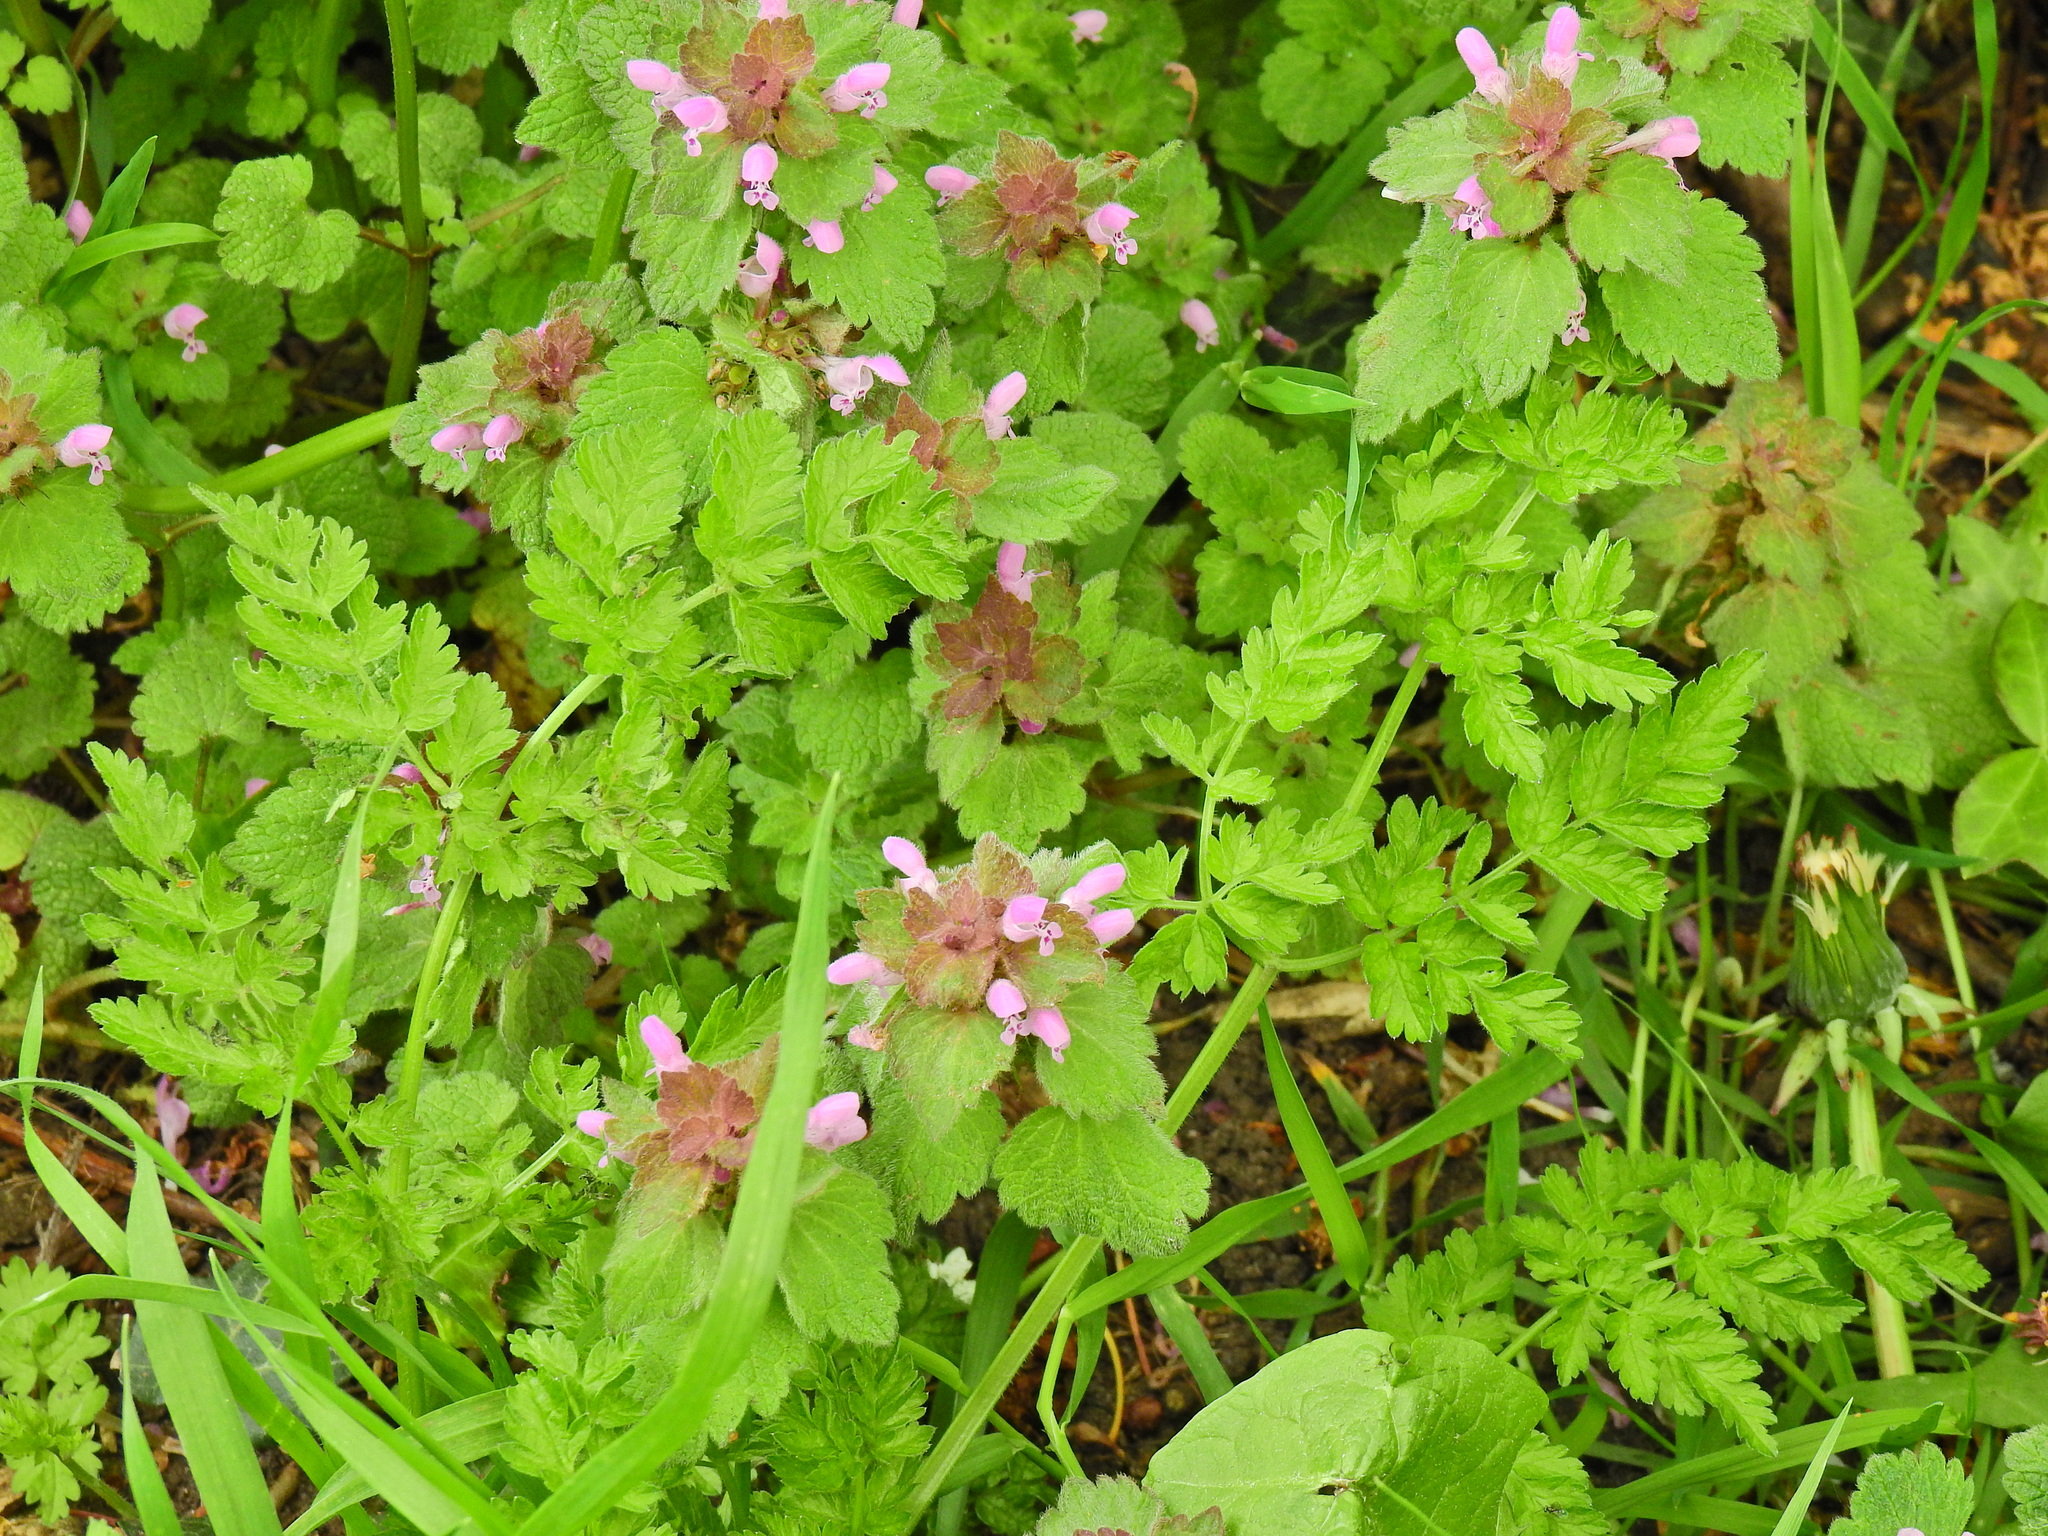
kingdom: Plantae
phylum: Tracheophyta
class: Magnoliopsida
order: Lamiales
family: Lamiaceae
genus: Lamium
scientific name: Lamium purpureum
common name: Red dead-nettle
